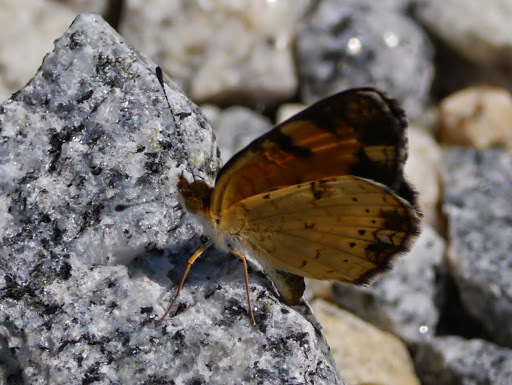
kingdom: Animalia
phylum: Arthropoda
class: Insecta
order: Lepidoptera
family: Nymphalidae
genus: Phyciodes
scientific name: Phyciodes tharos
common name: Pearl crescent
